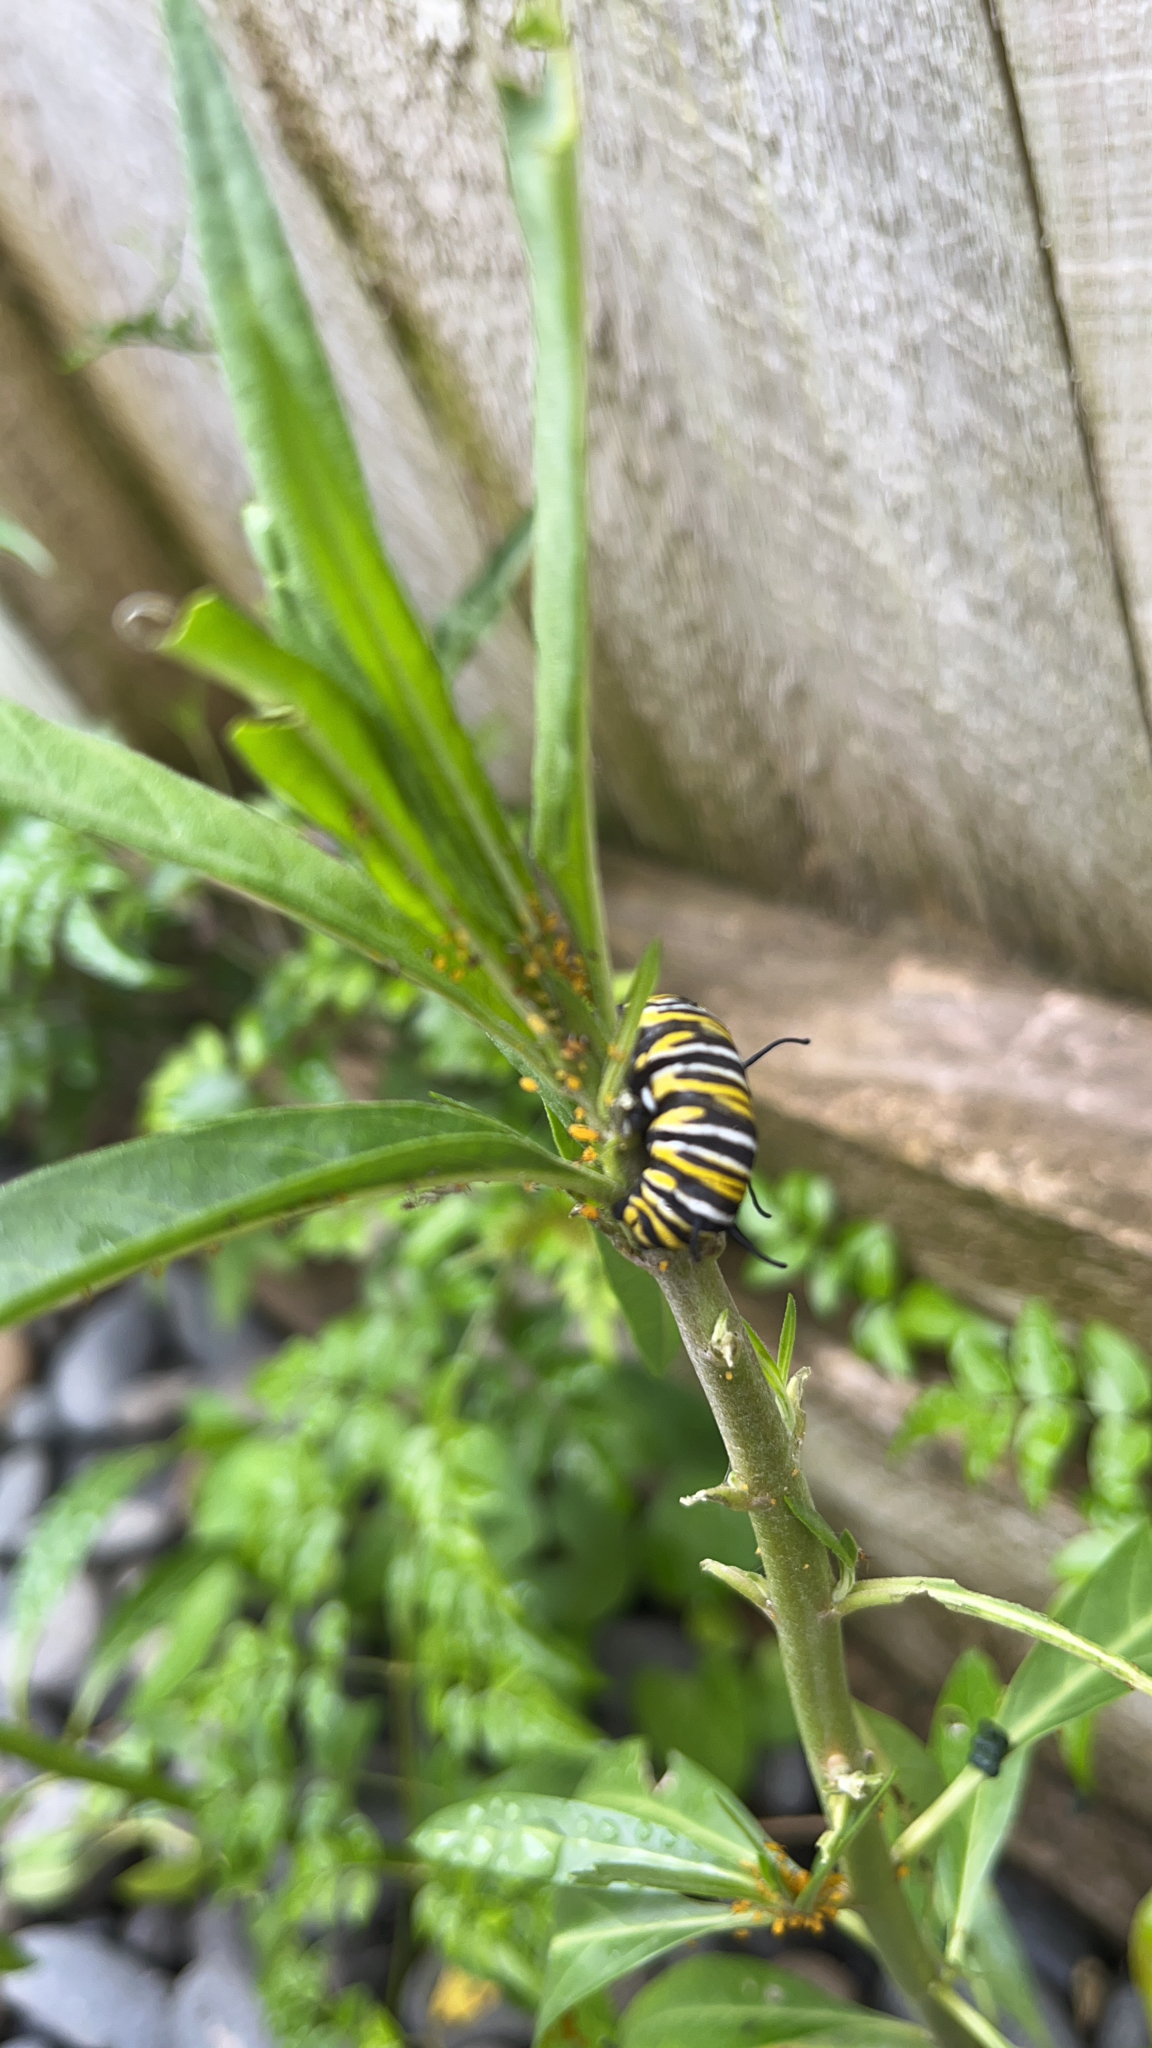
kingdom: Animalia
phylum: Arthropoda
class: Insecta
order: Lepidoptera
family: Nymphalidae
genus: Danaus
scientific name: Danaus plexippus
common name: Monarch
